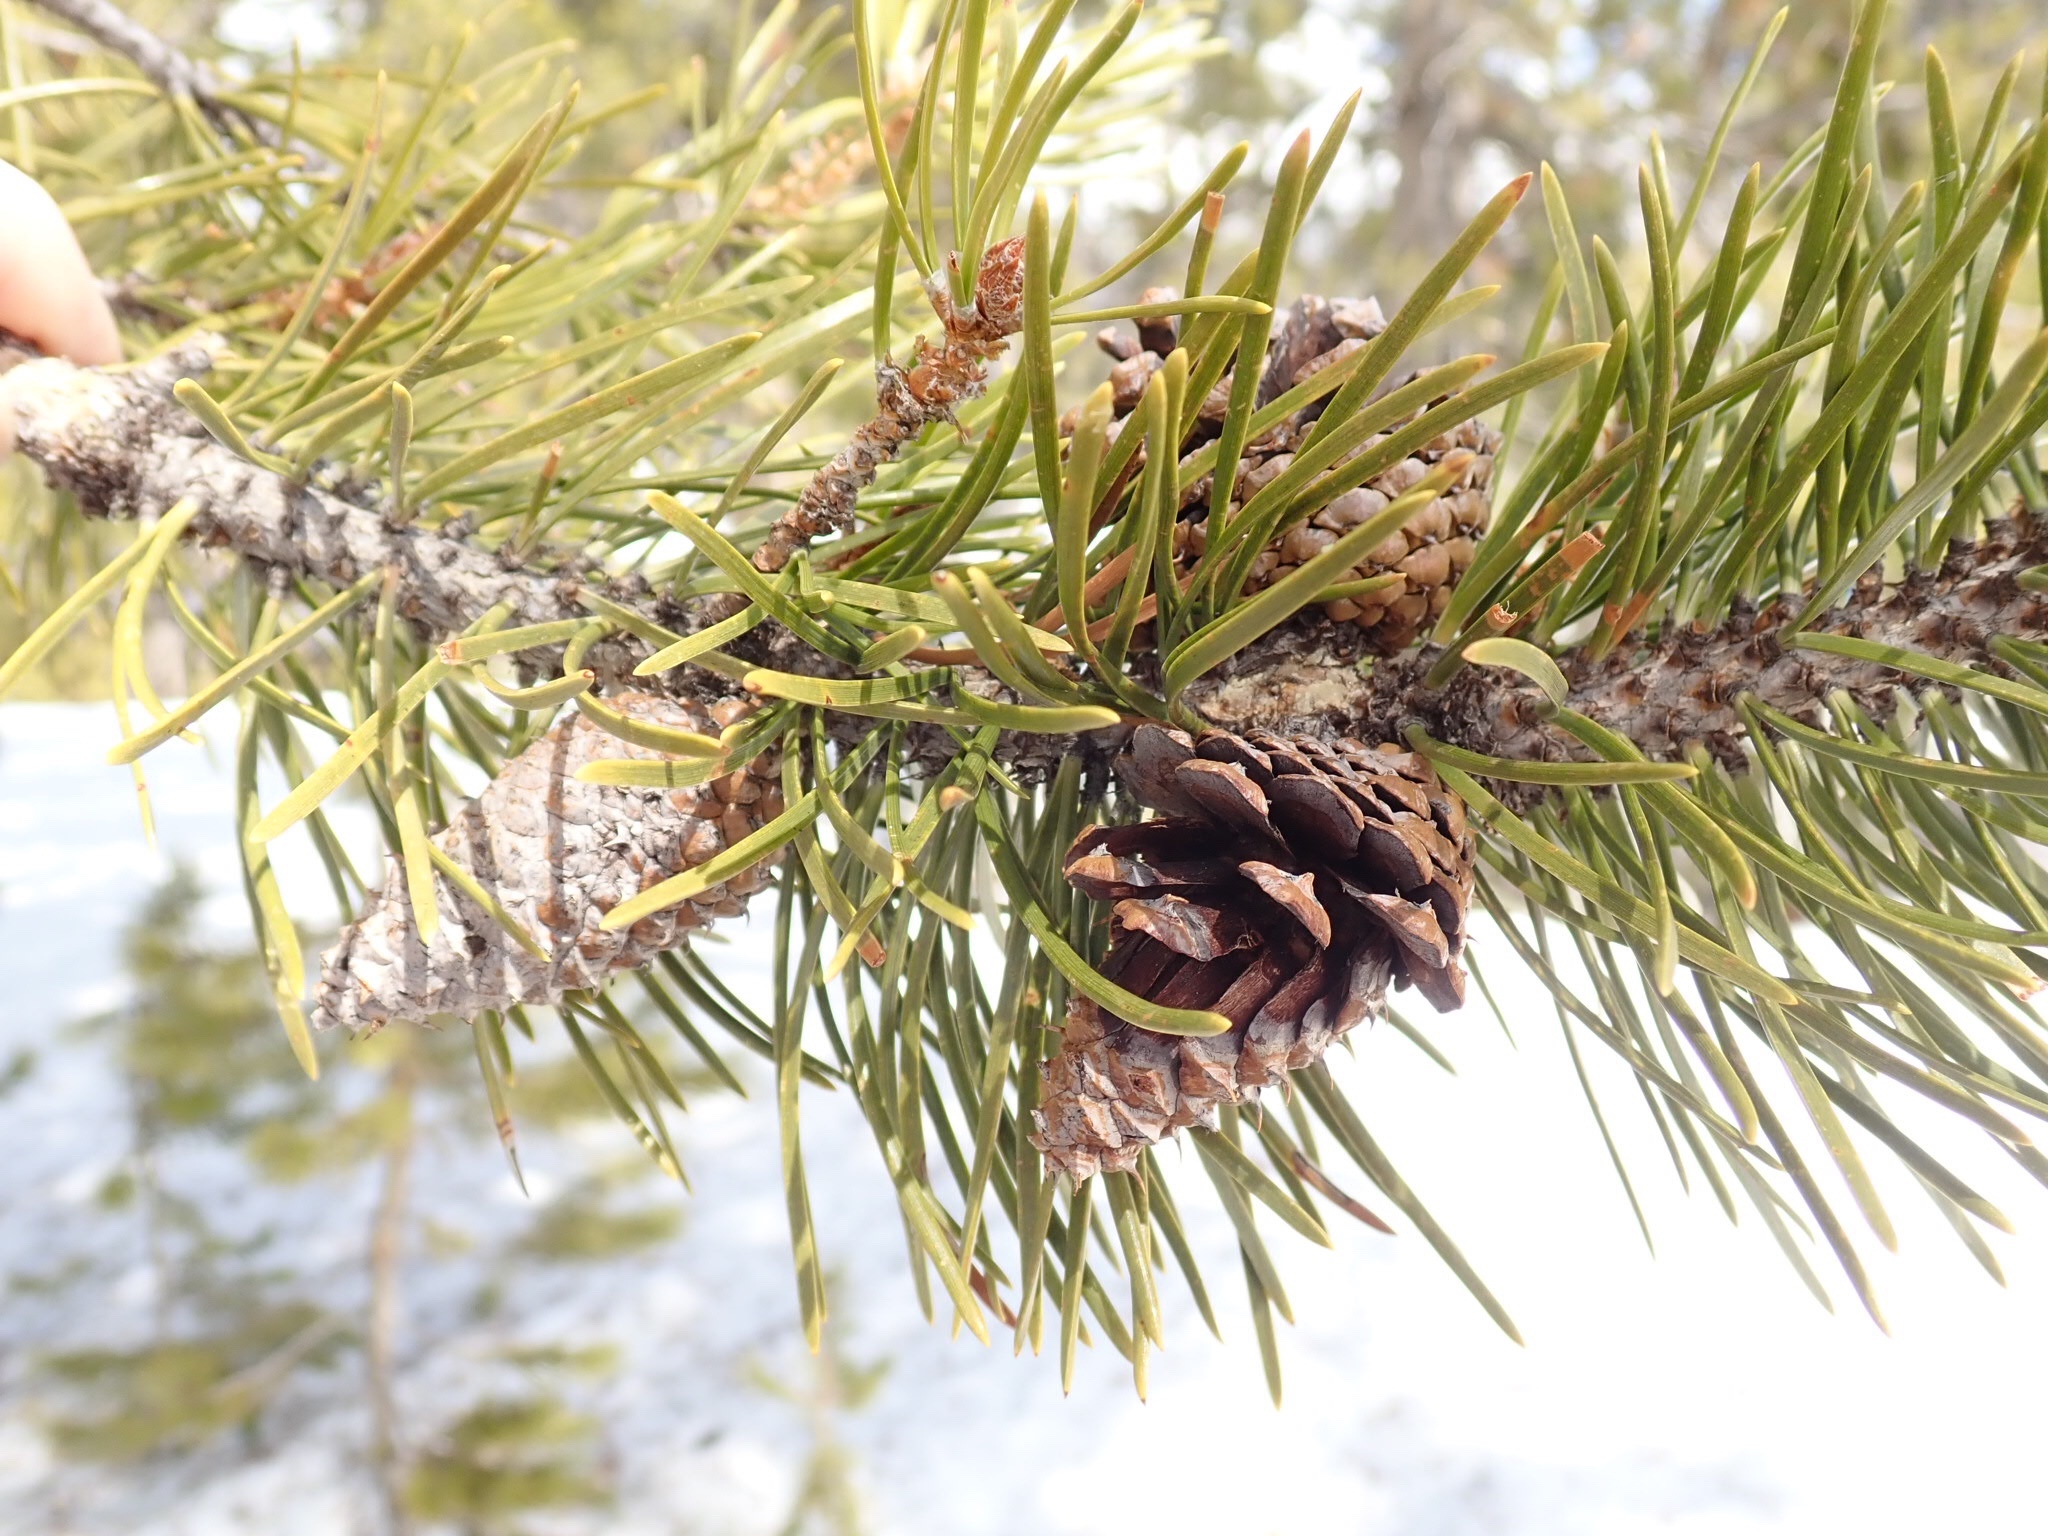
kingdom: Plantae
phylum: Tracheophyta
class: Pinopsida
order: Pinales
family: Pinaceae
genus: Pinus
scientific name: Pinus contorta
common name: Lodgepole pine
